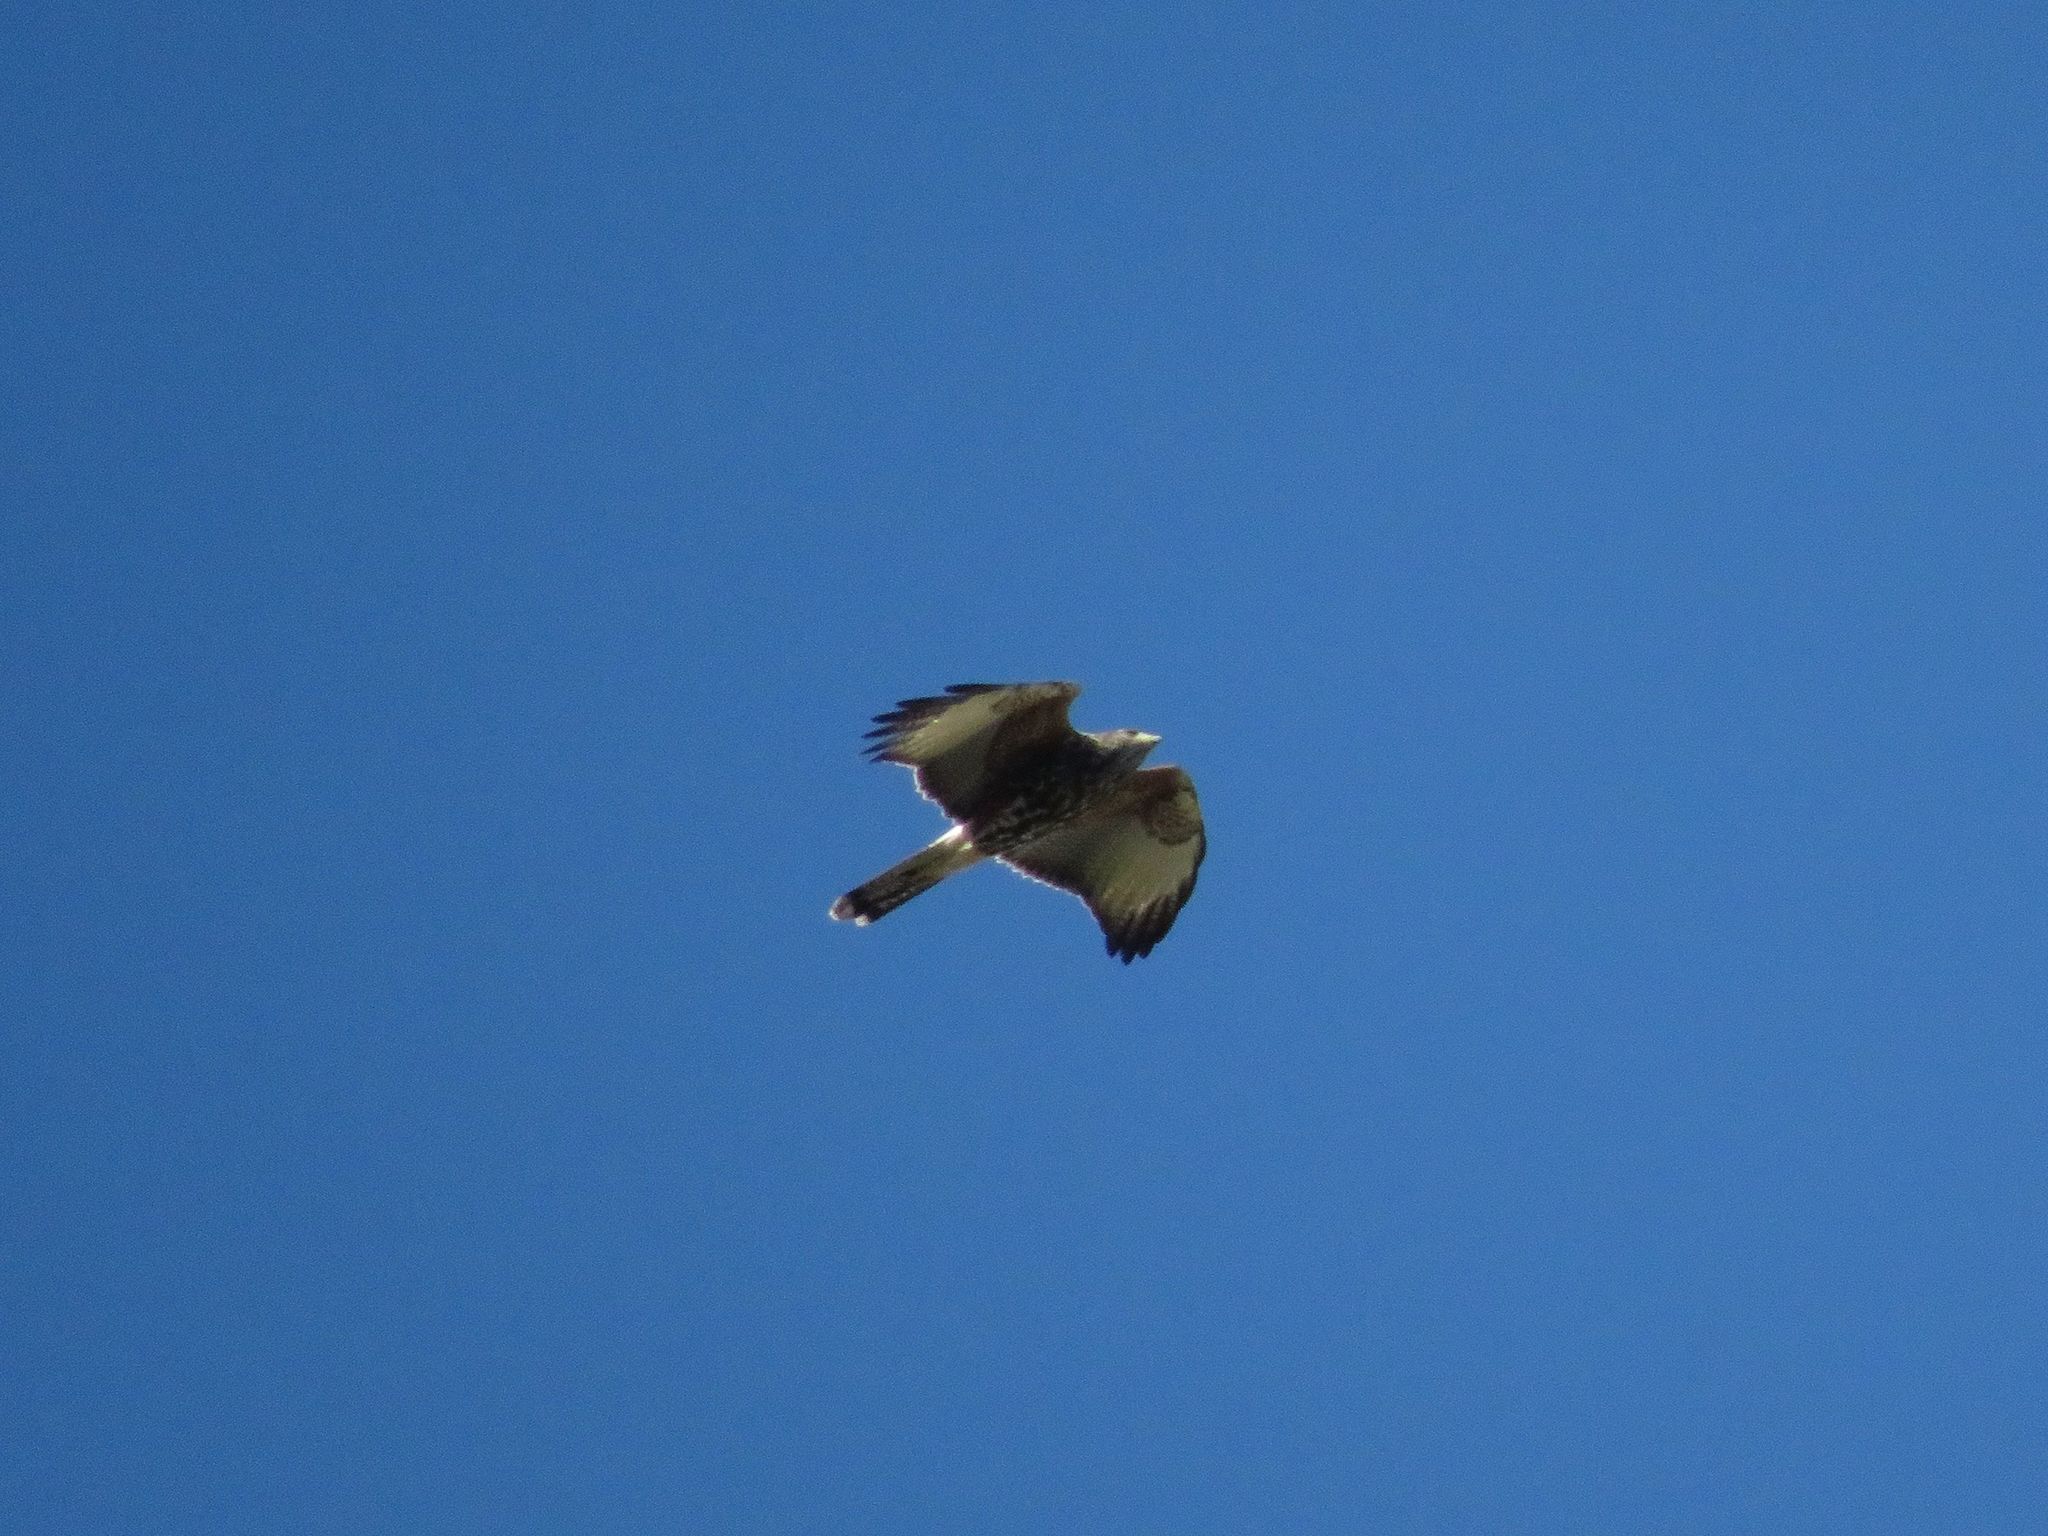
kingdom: Animalia
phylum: Chordata
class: Aves
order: Accipitriformes
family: Accipitridae
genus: Parabuteo
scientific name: Parabuteo unicinctus
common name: Harris's hawk
